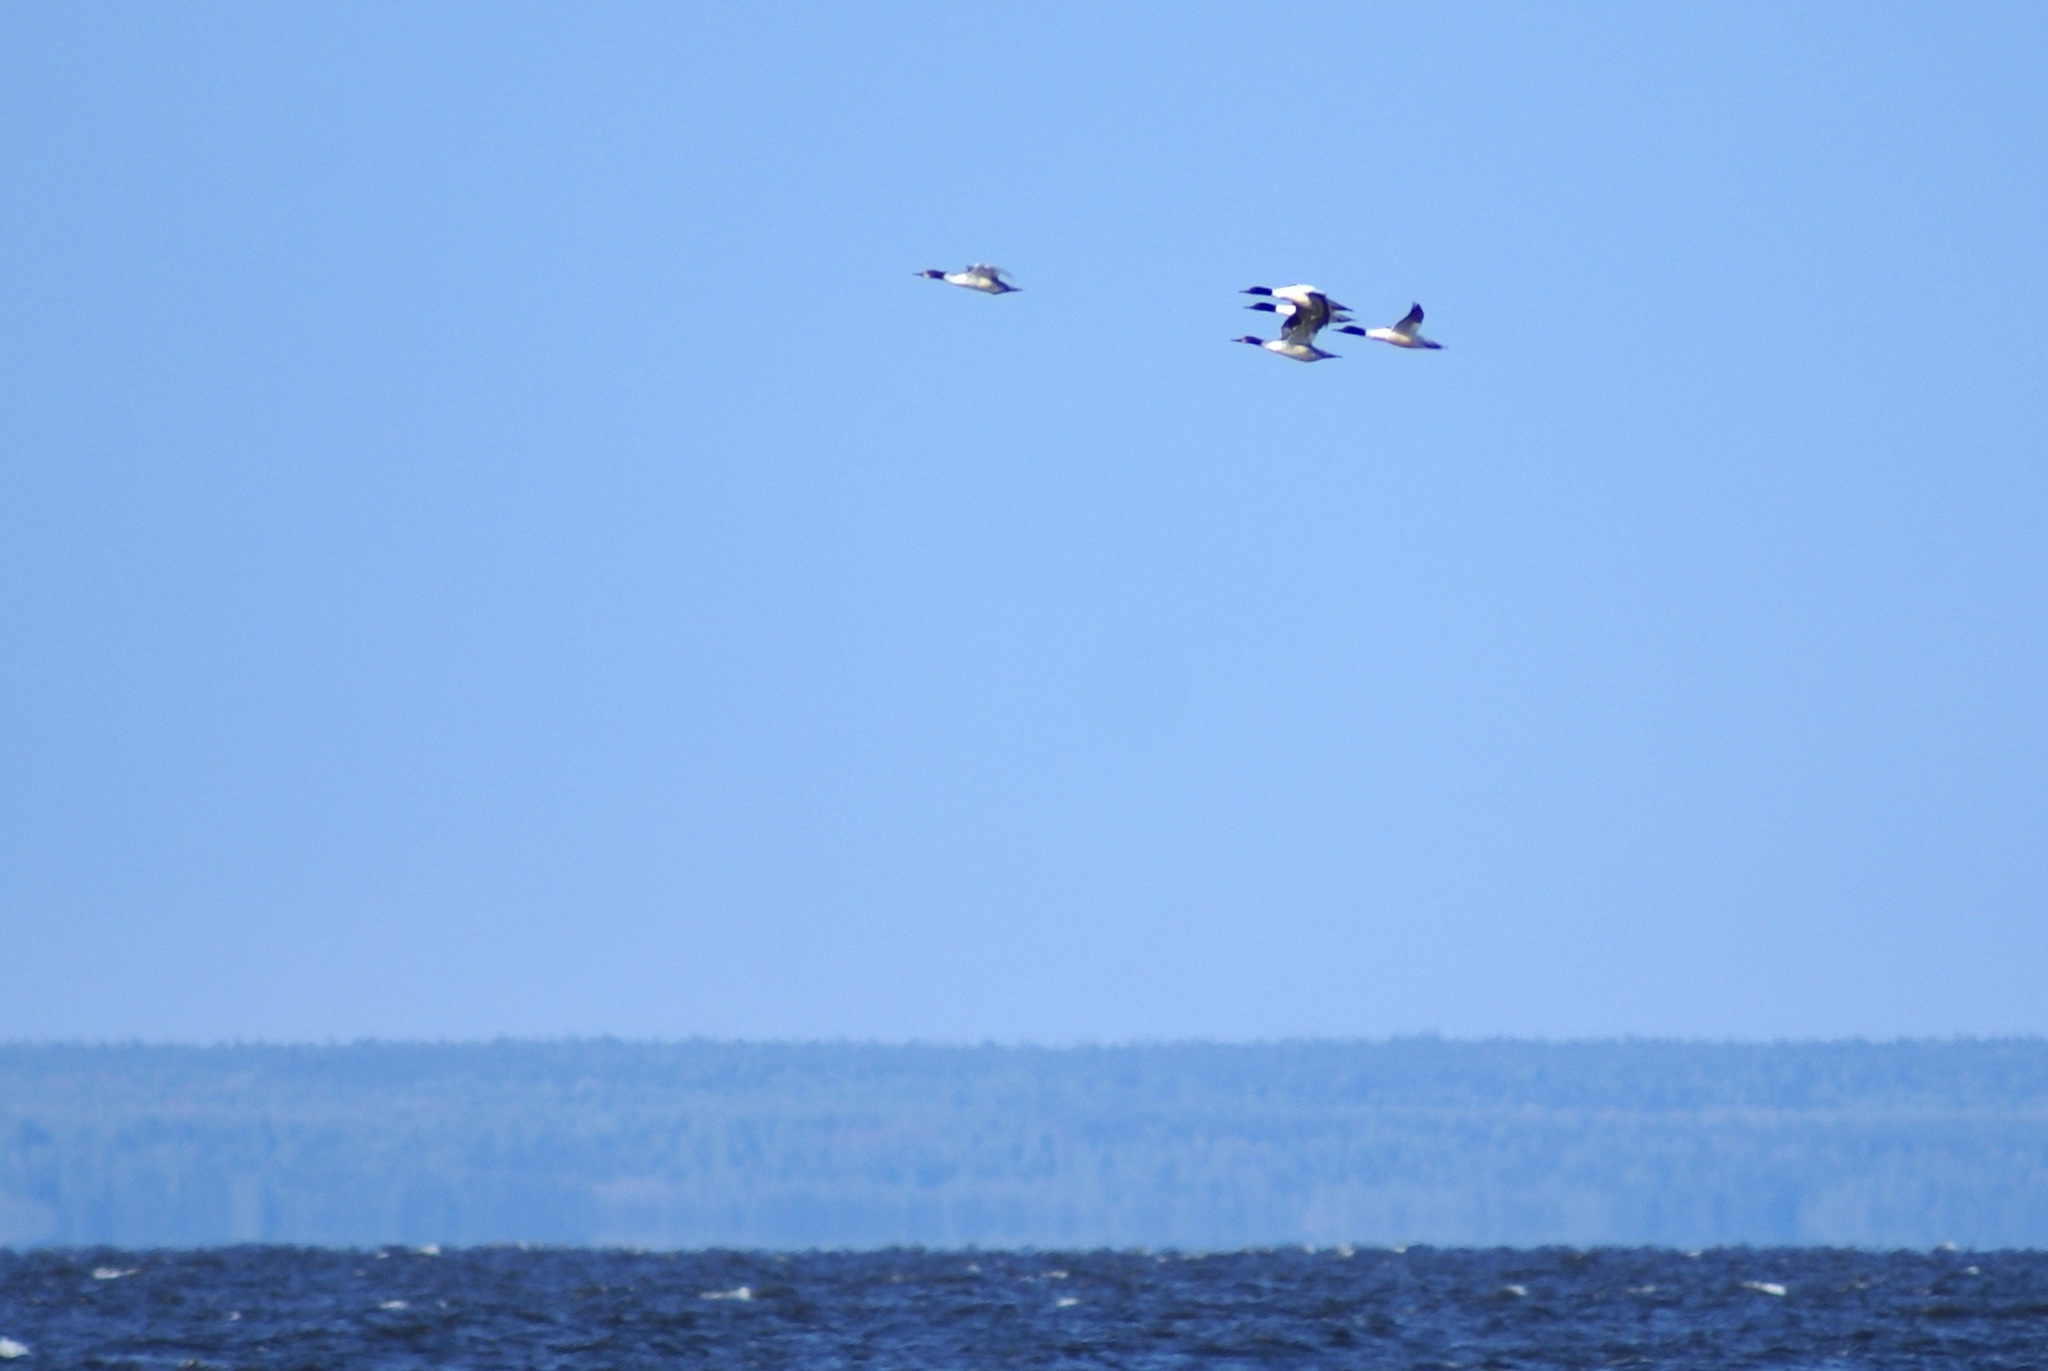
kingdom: Animalia
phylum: Chordata
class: Aves
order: Anseriformes
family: Anatidae
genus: Mergus
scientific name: Mergus merganser
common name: Common merganser
